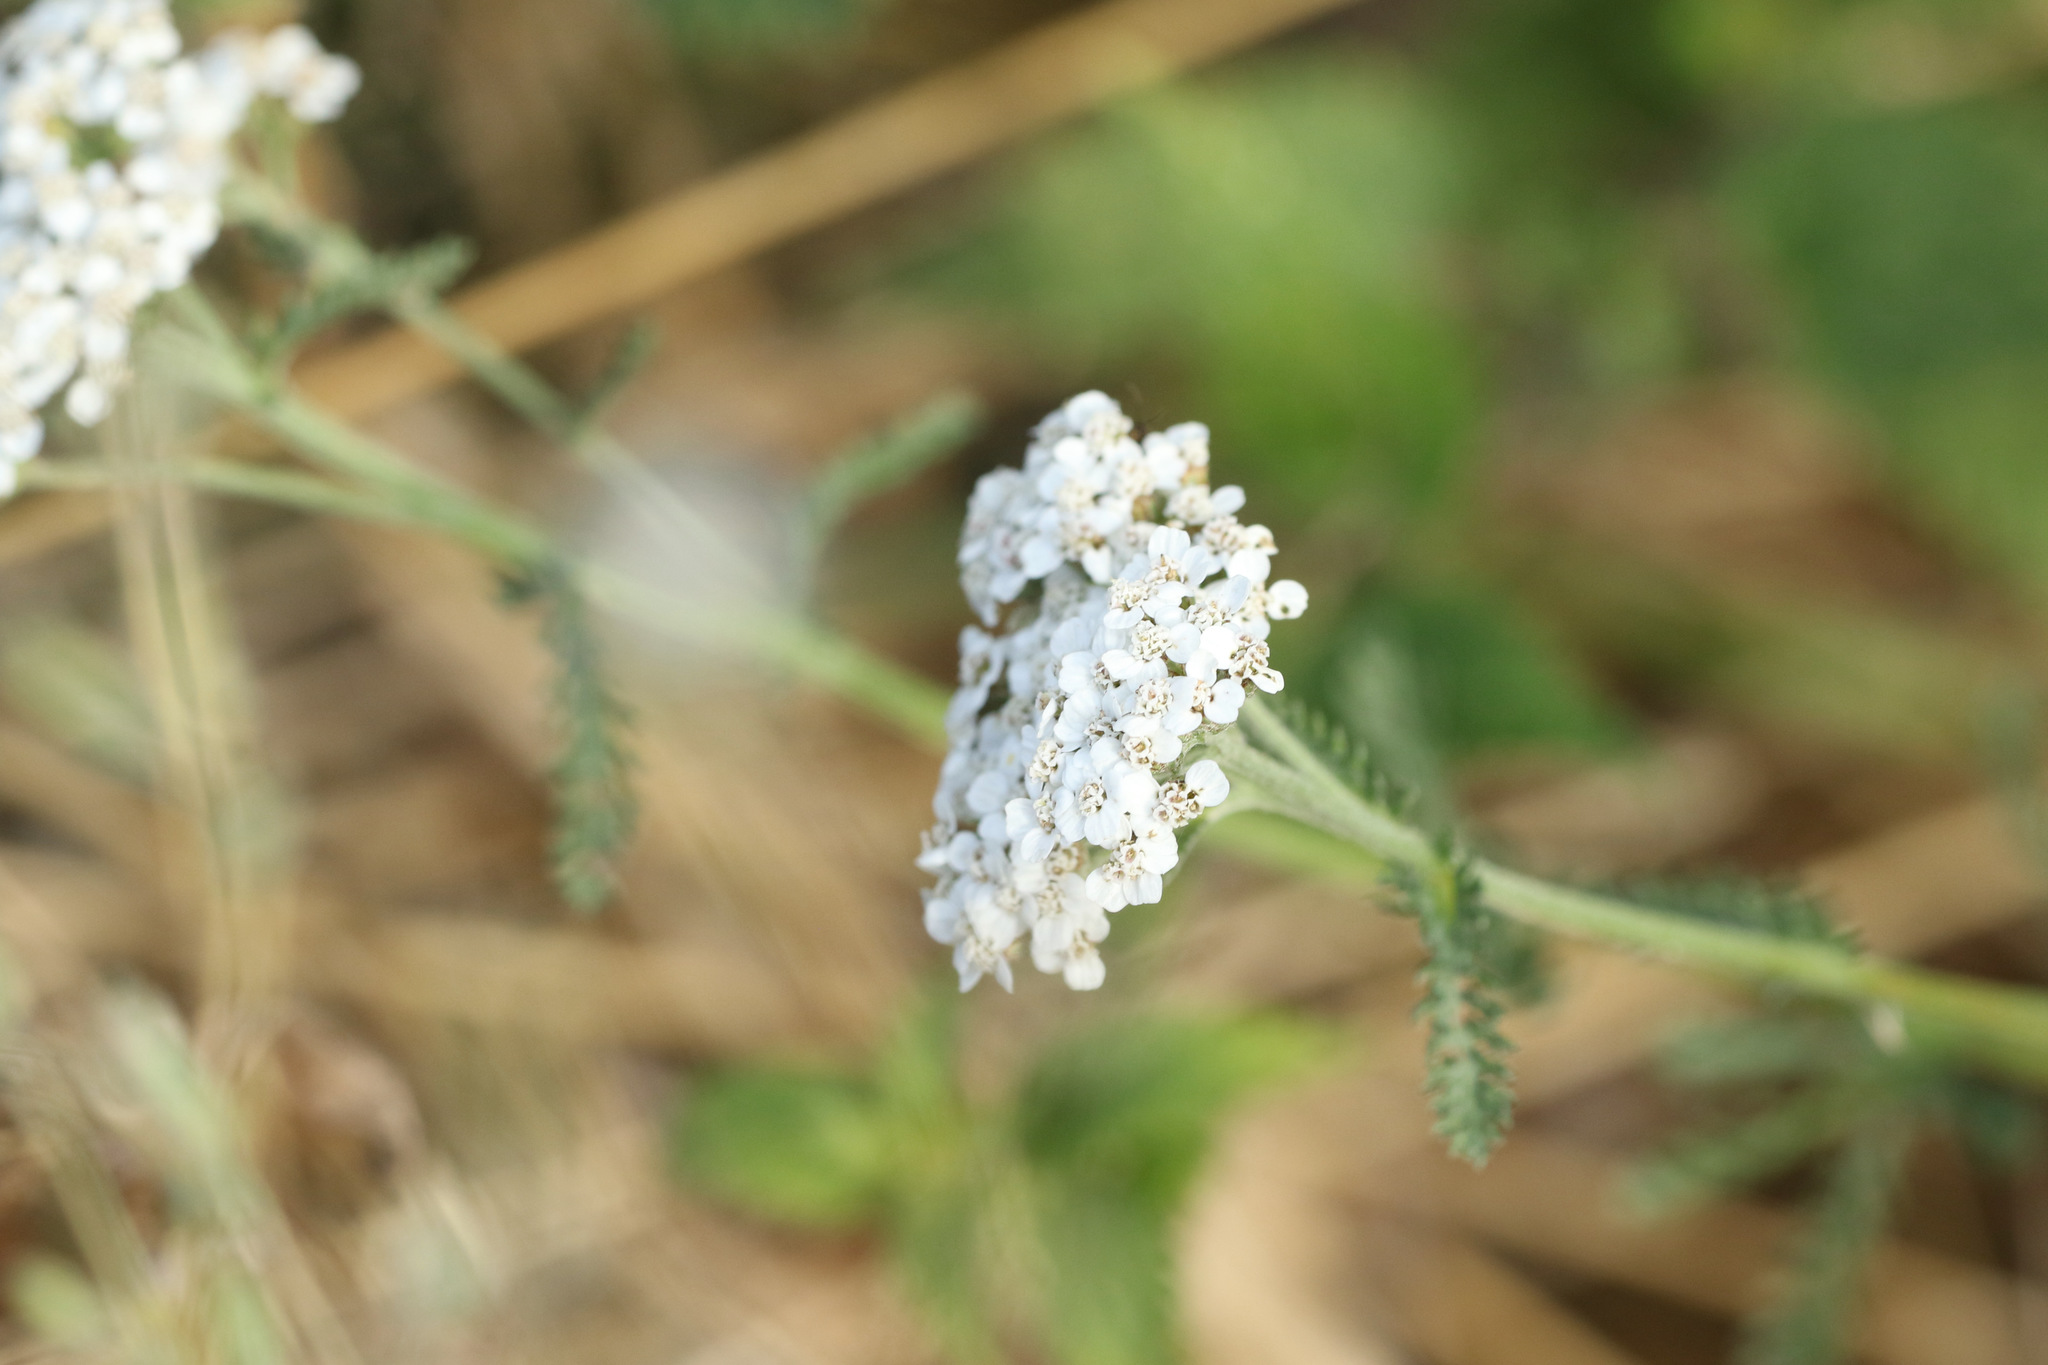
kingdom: Plantae
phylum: Tracheophyta
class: Magnoliopsida
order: Asterales
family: Asteraceae
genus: Achillea
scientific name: Achillea millefolium
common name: Yarrow
